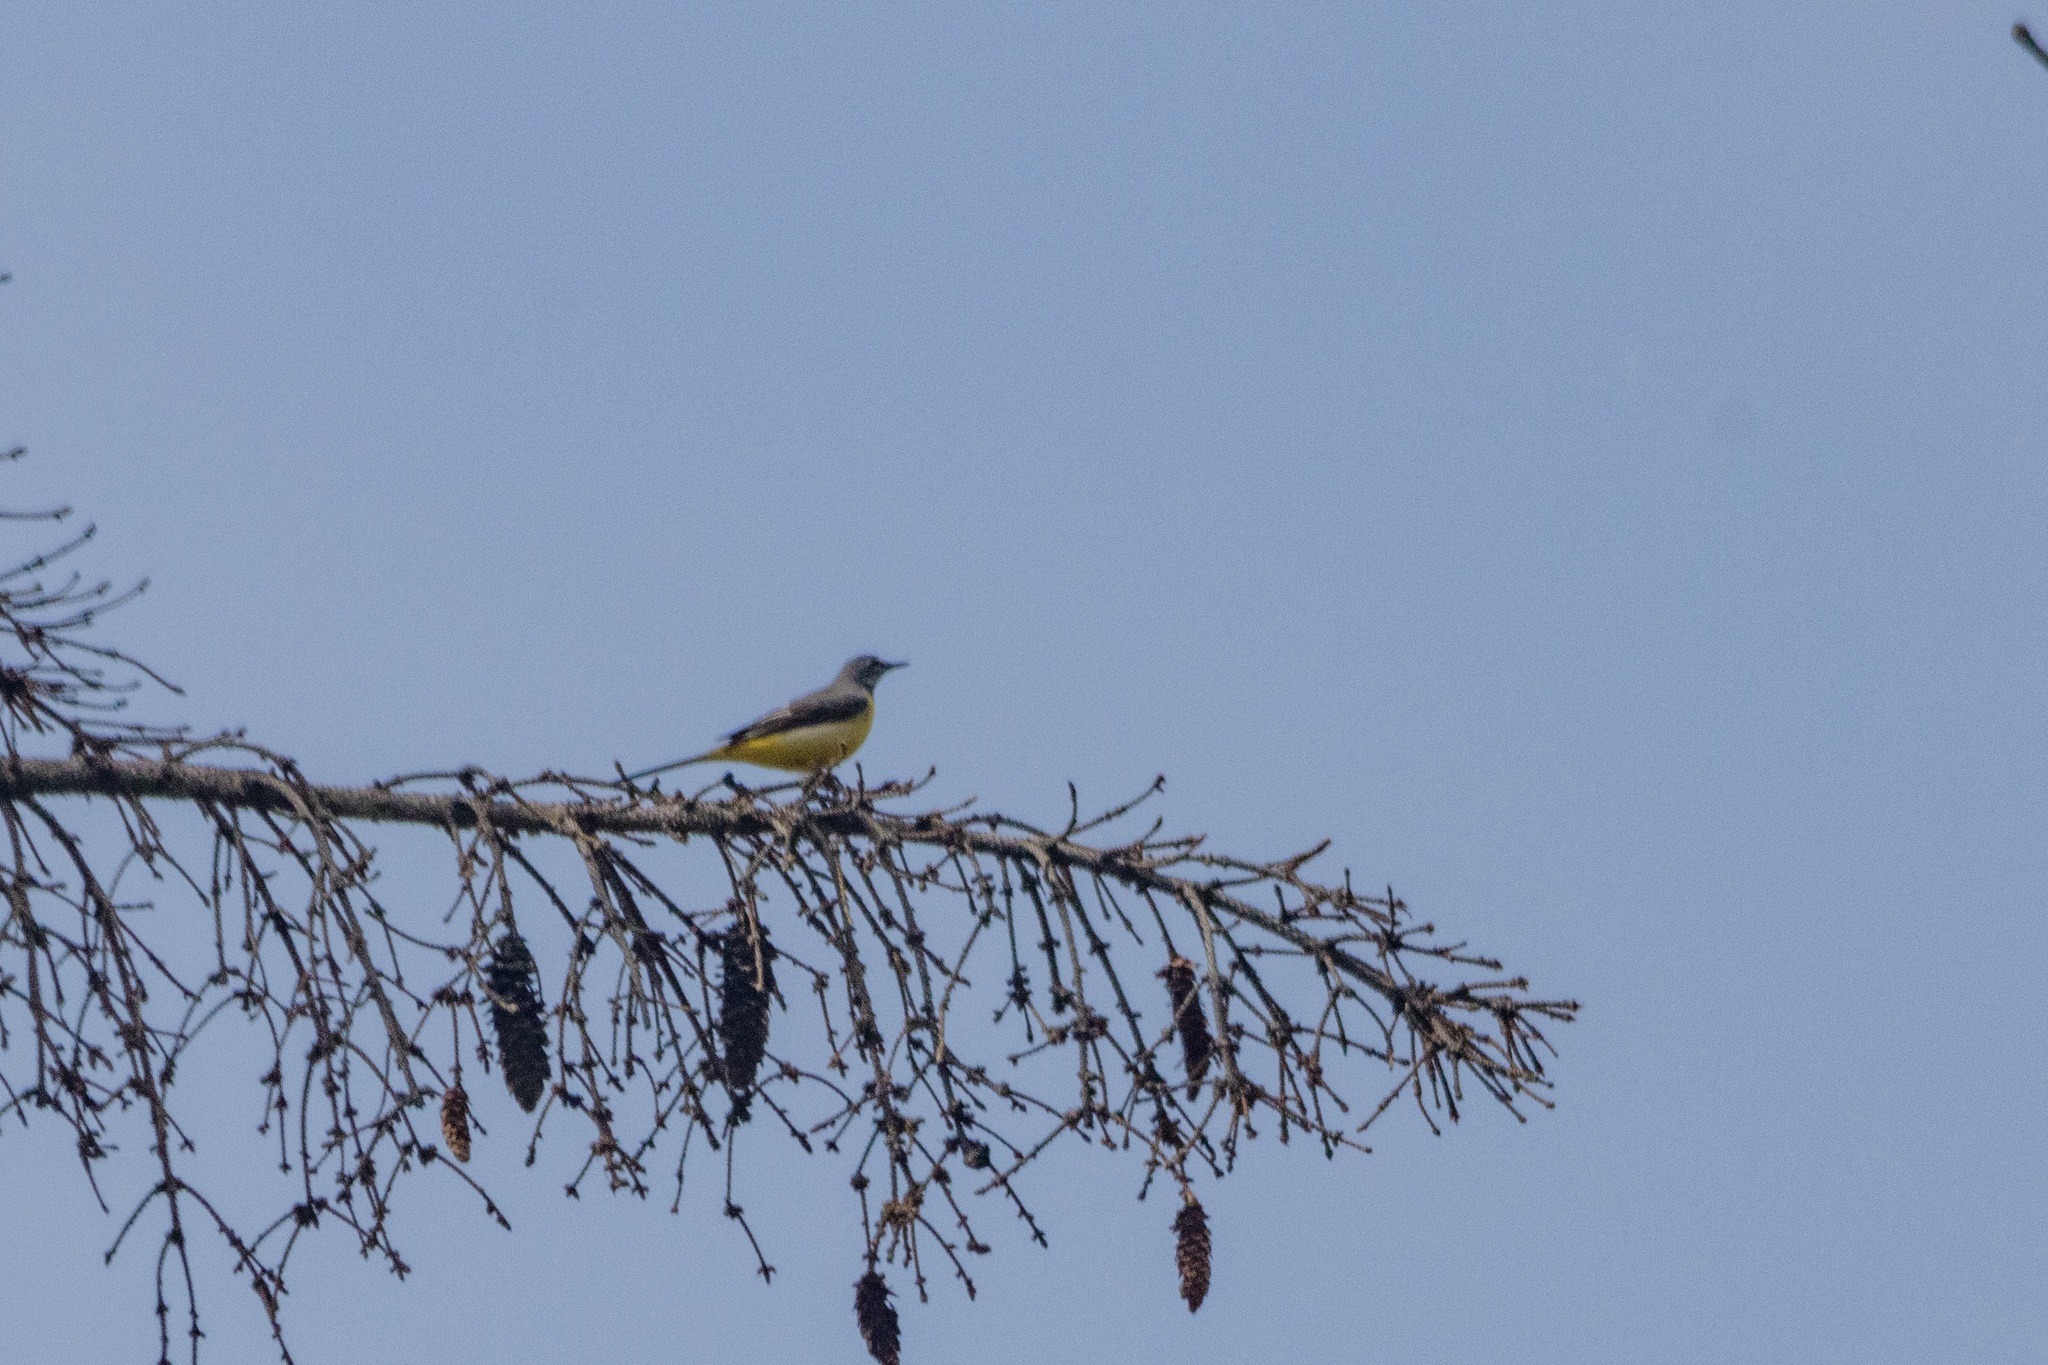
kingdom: Animalia
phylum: Chordata
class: Aves
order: Passeriformes
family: Motacillidae
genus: Motacilla
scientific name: Motacilla cinerea
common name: Grey wagtail
